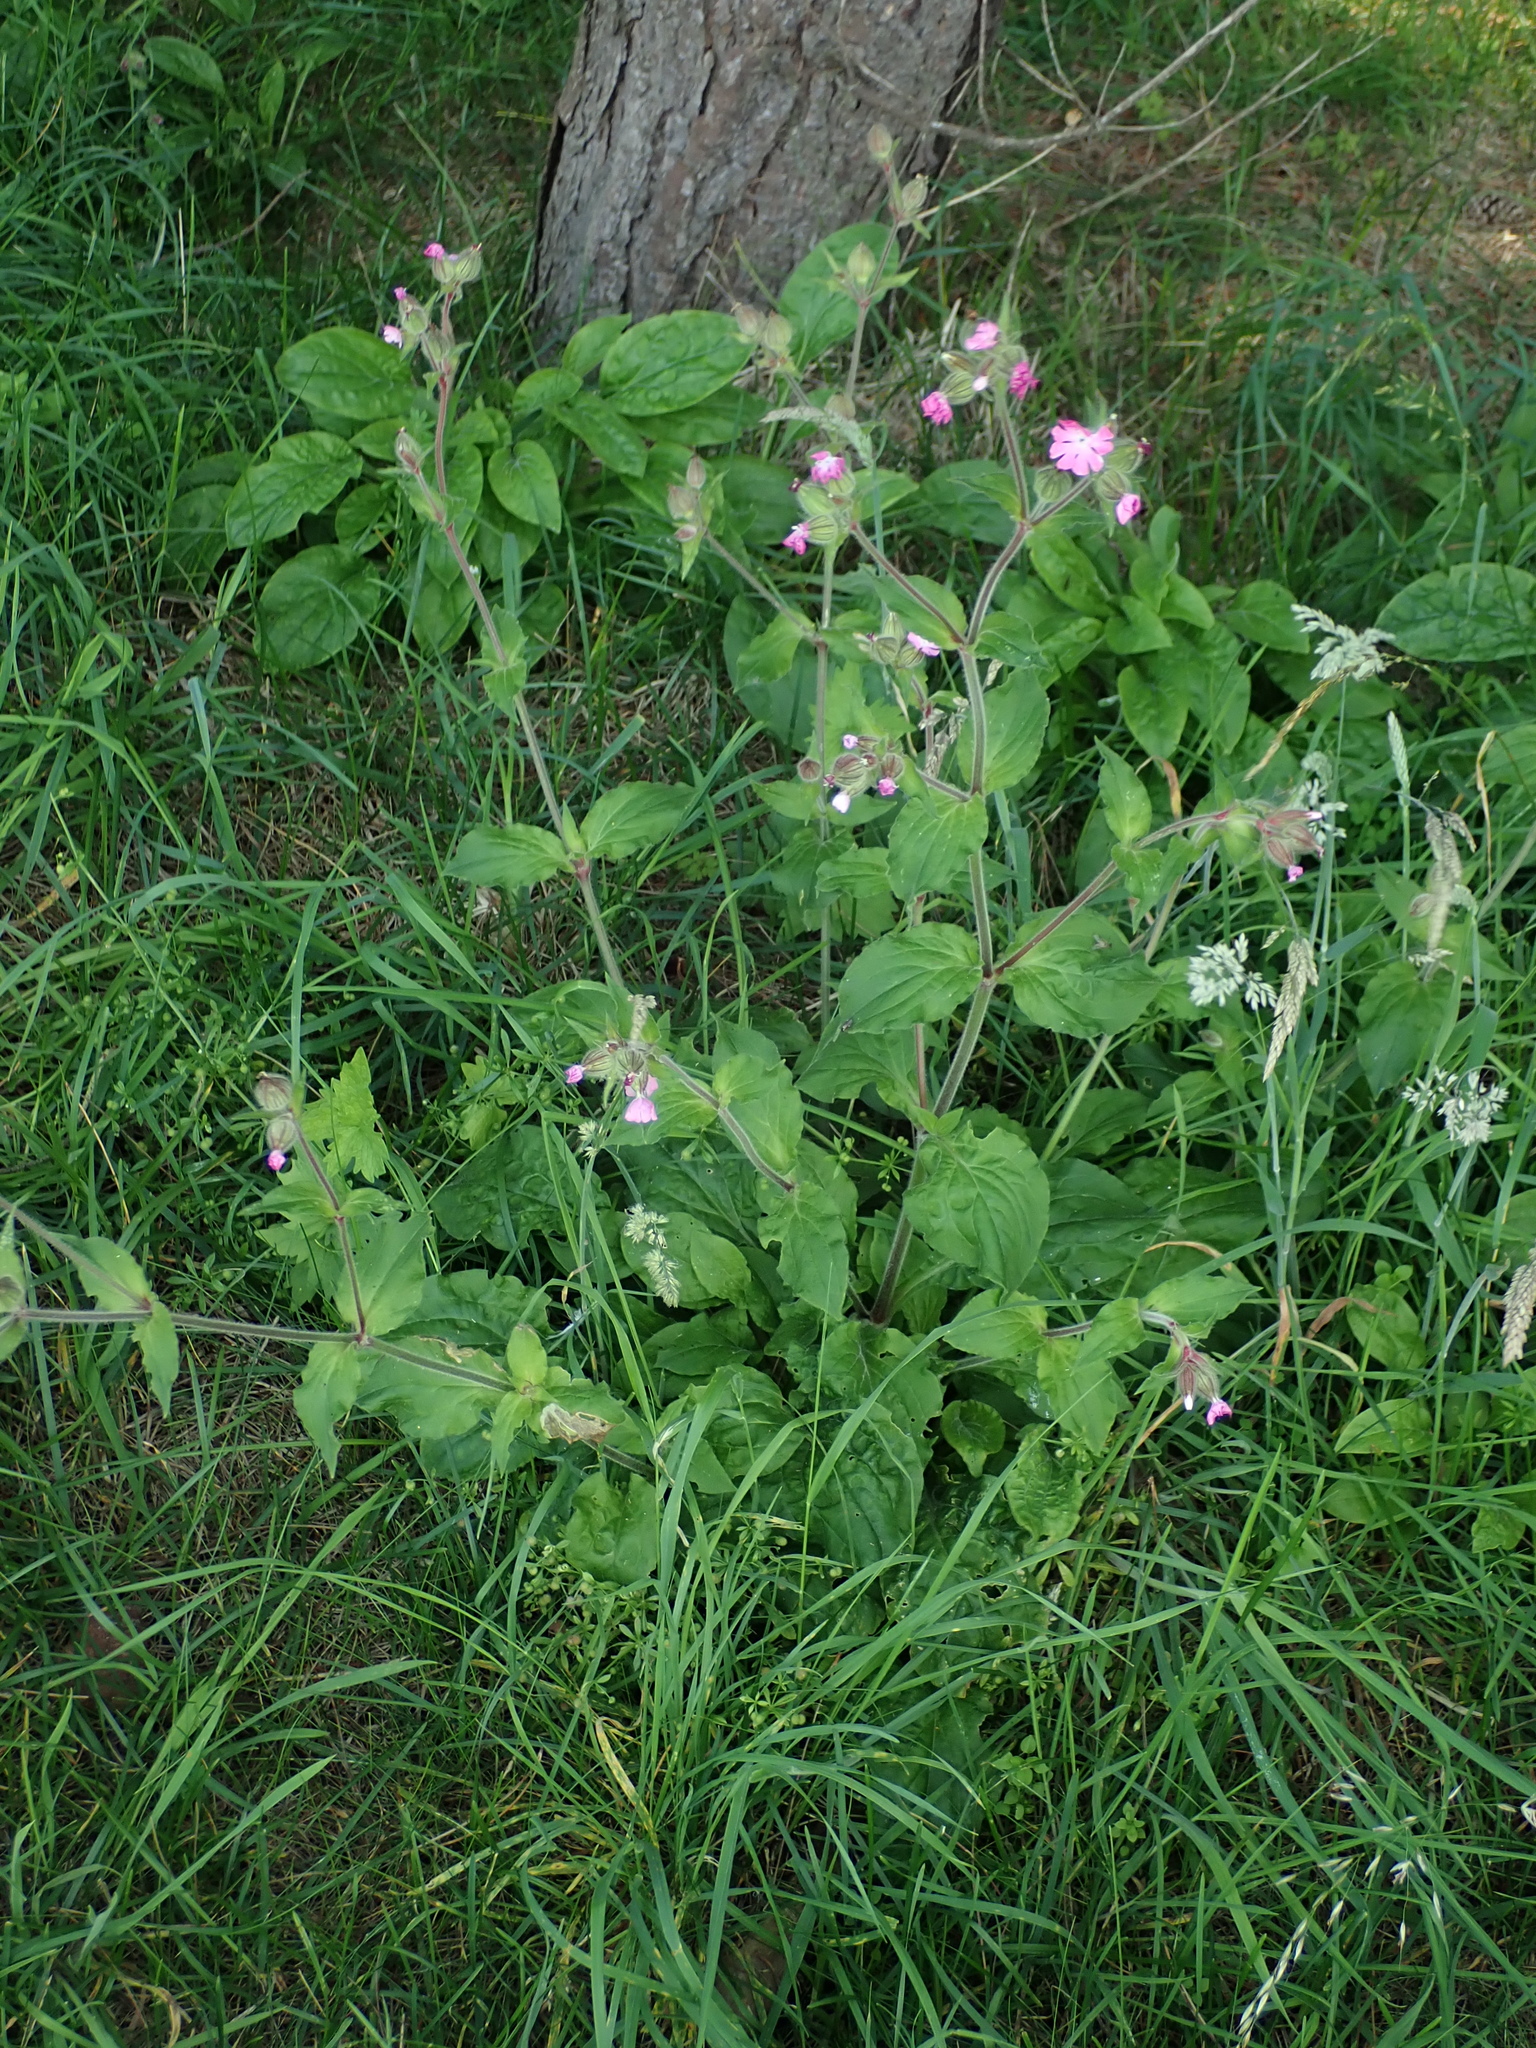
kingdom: Plantae
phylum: Tracheophyta
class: Magnoliopsida
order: Caryophyllales
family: Caryophyllaceae
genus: Silene
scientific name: Silene dioica
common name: Red campion
